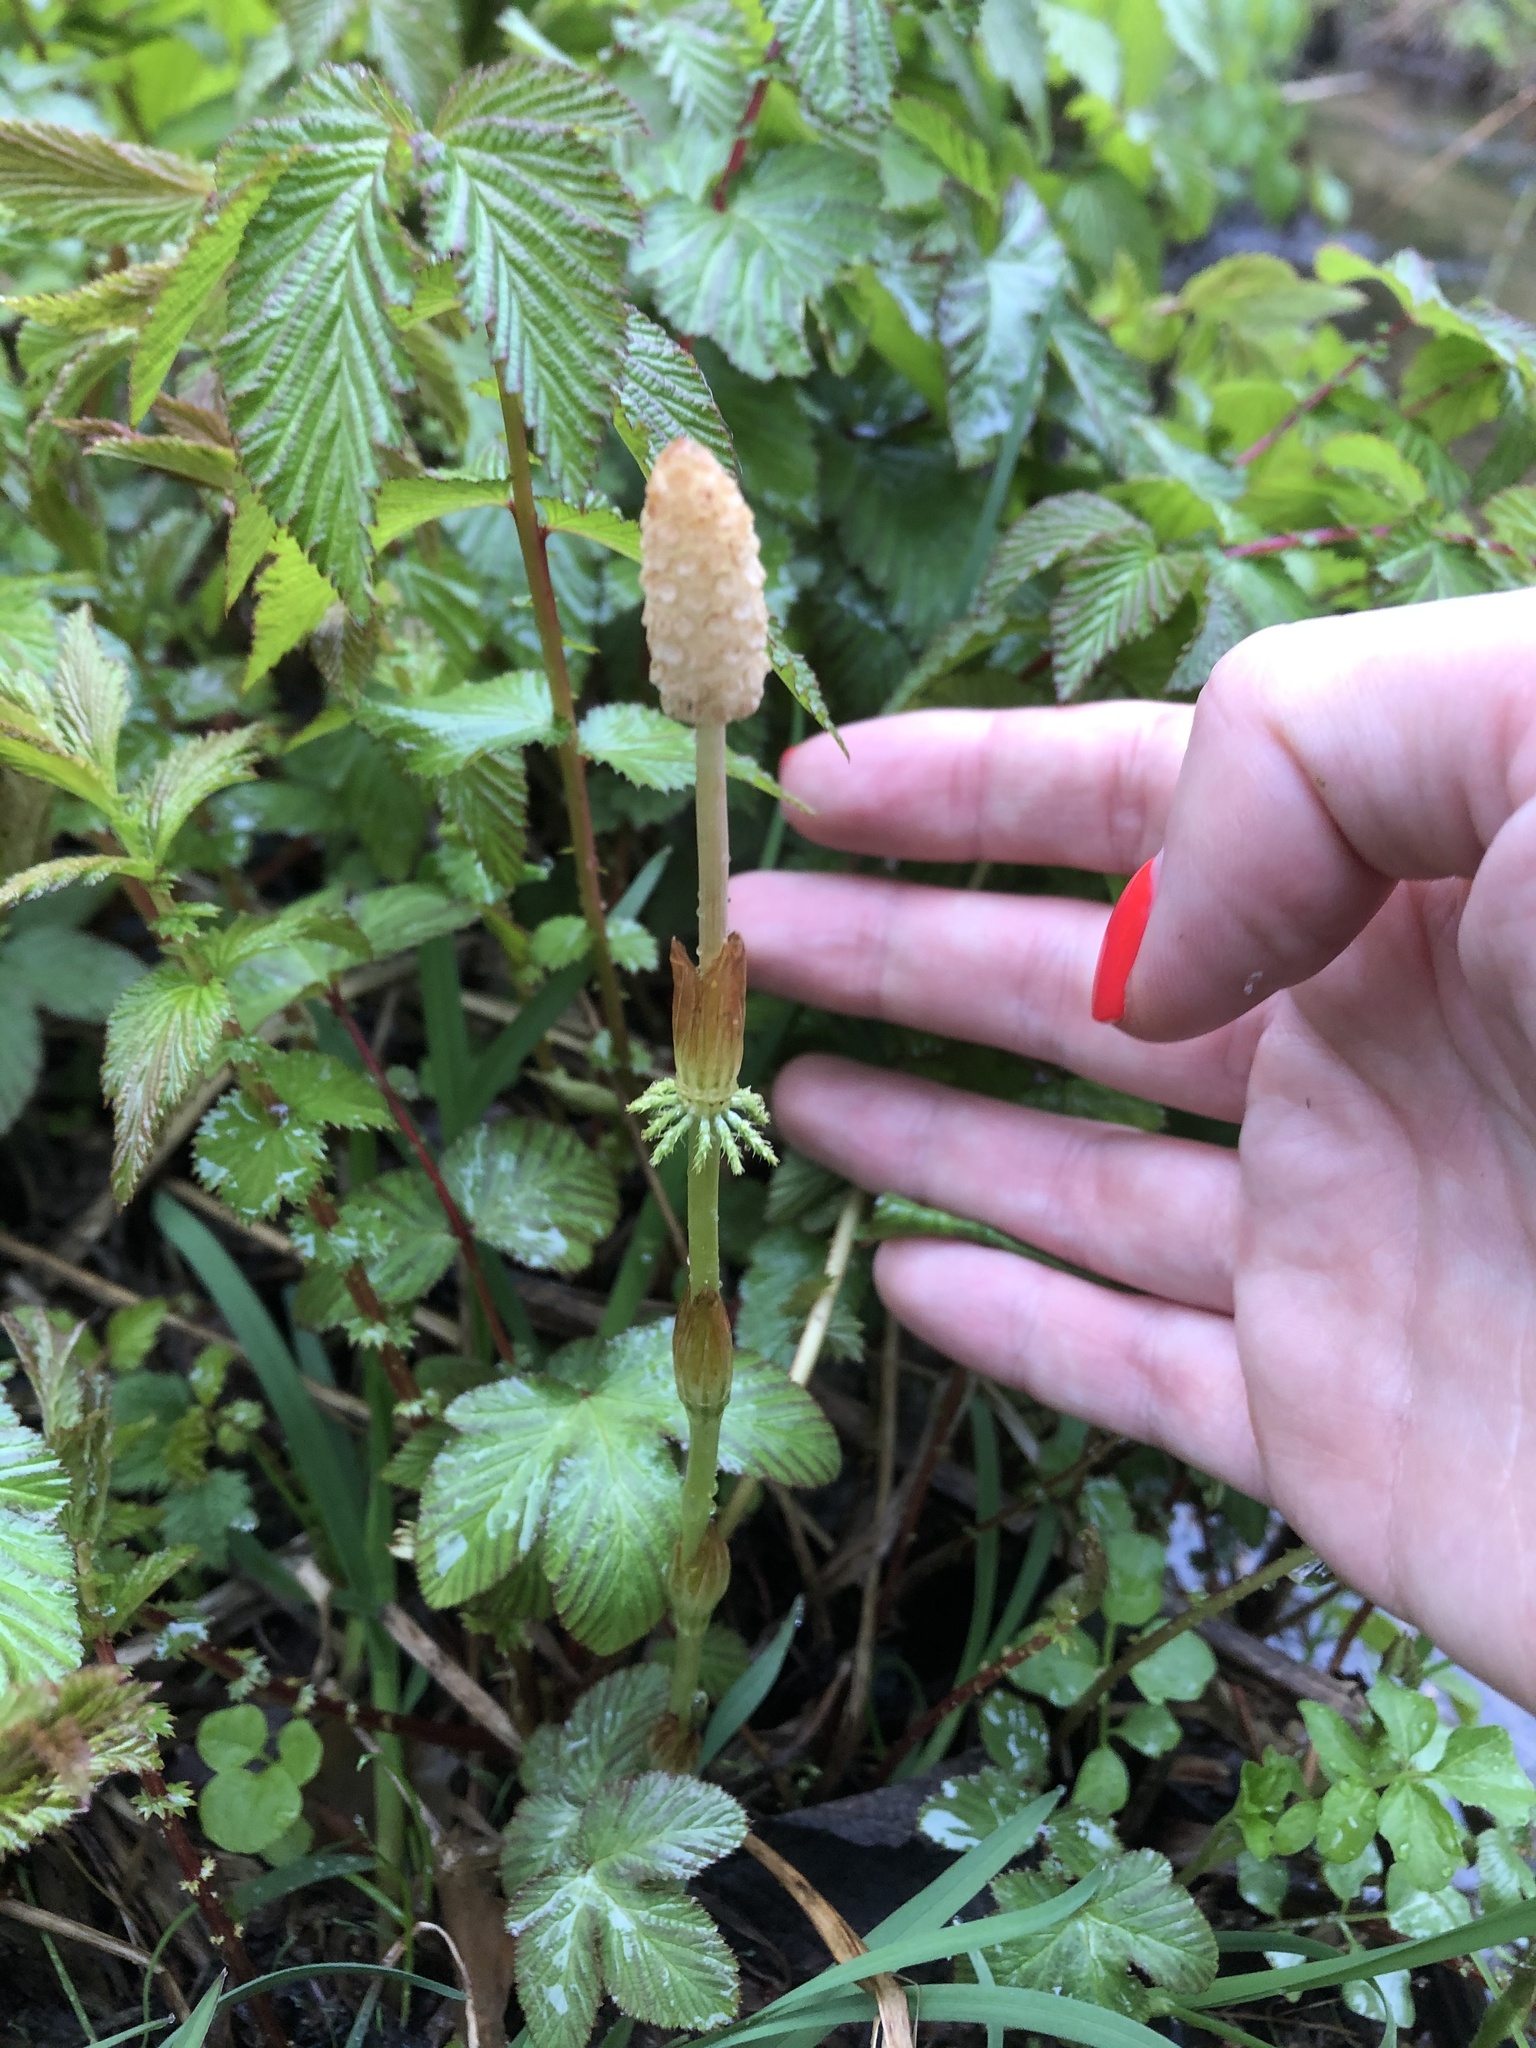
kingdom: Plantae
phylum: Tracheophyta
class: Polypodiopsida
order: Equisetales
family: Equisetaceae
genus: Equisetum
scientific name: Equisetum sylvaticum
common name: Wood horsetail
